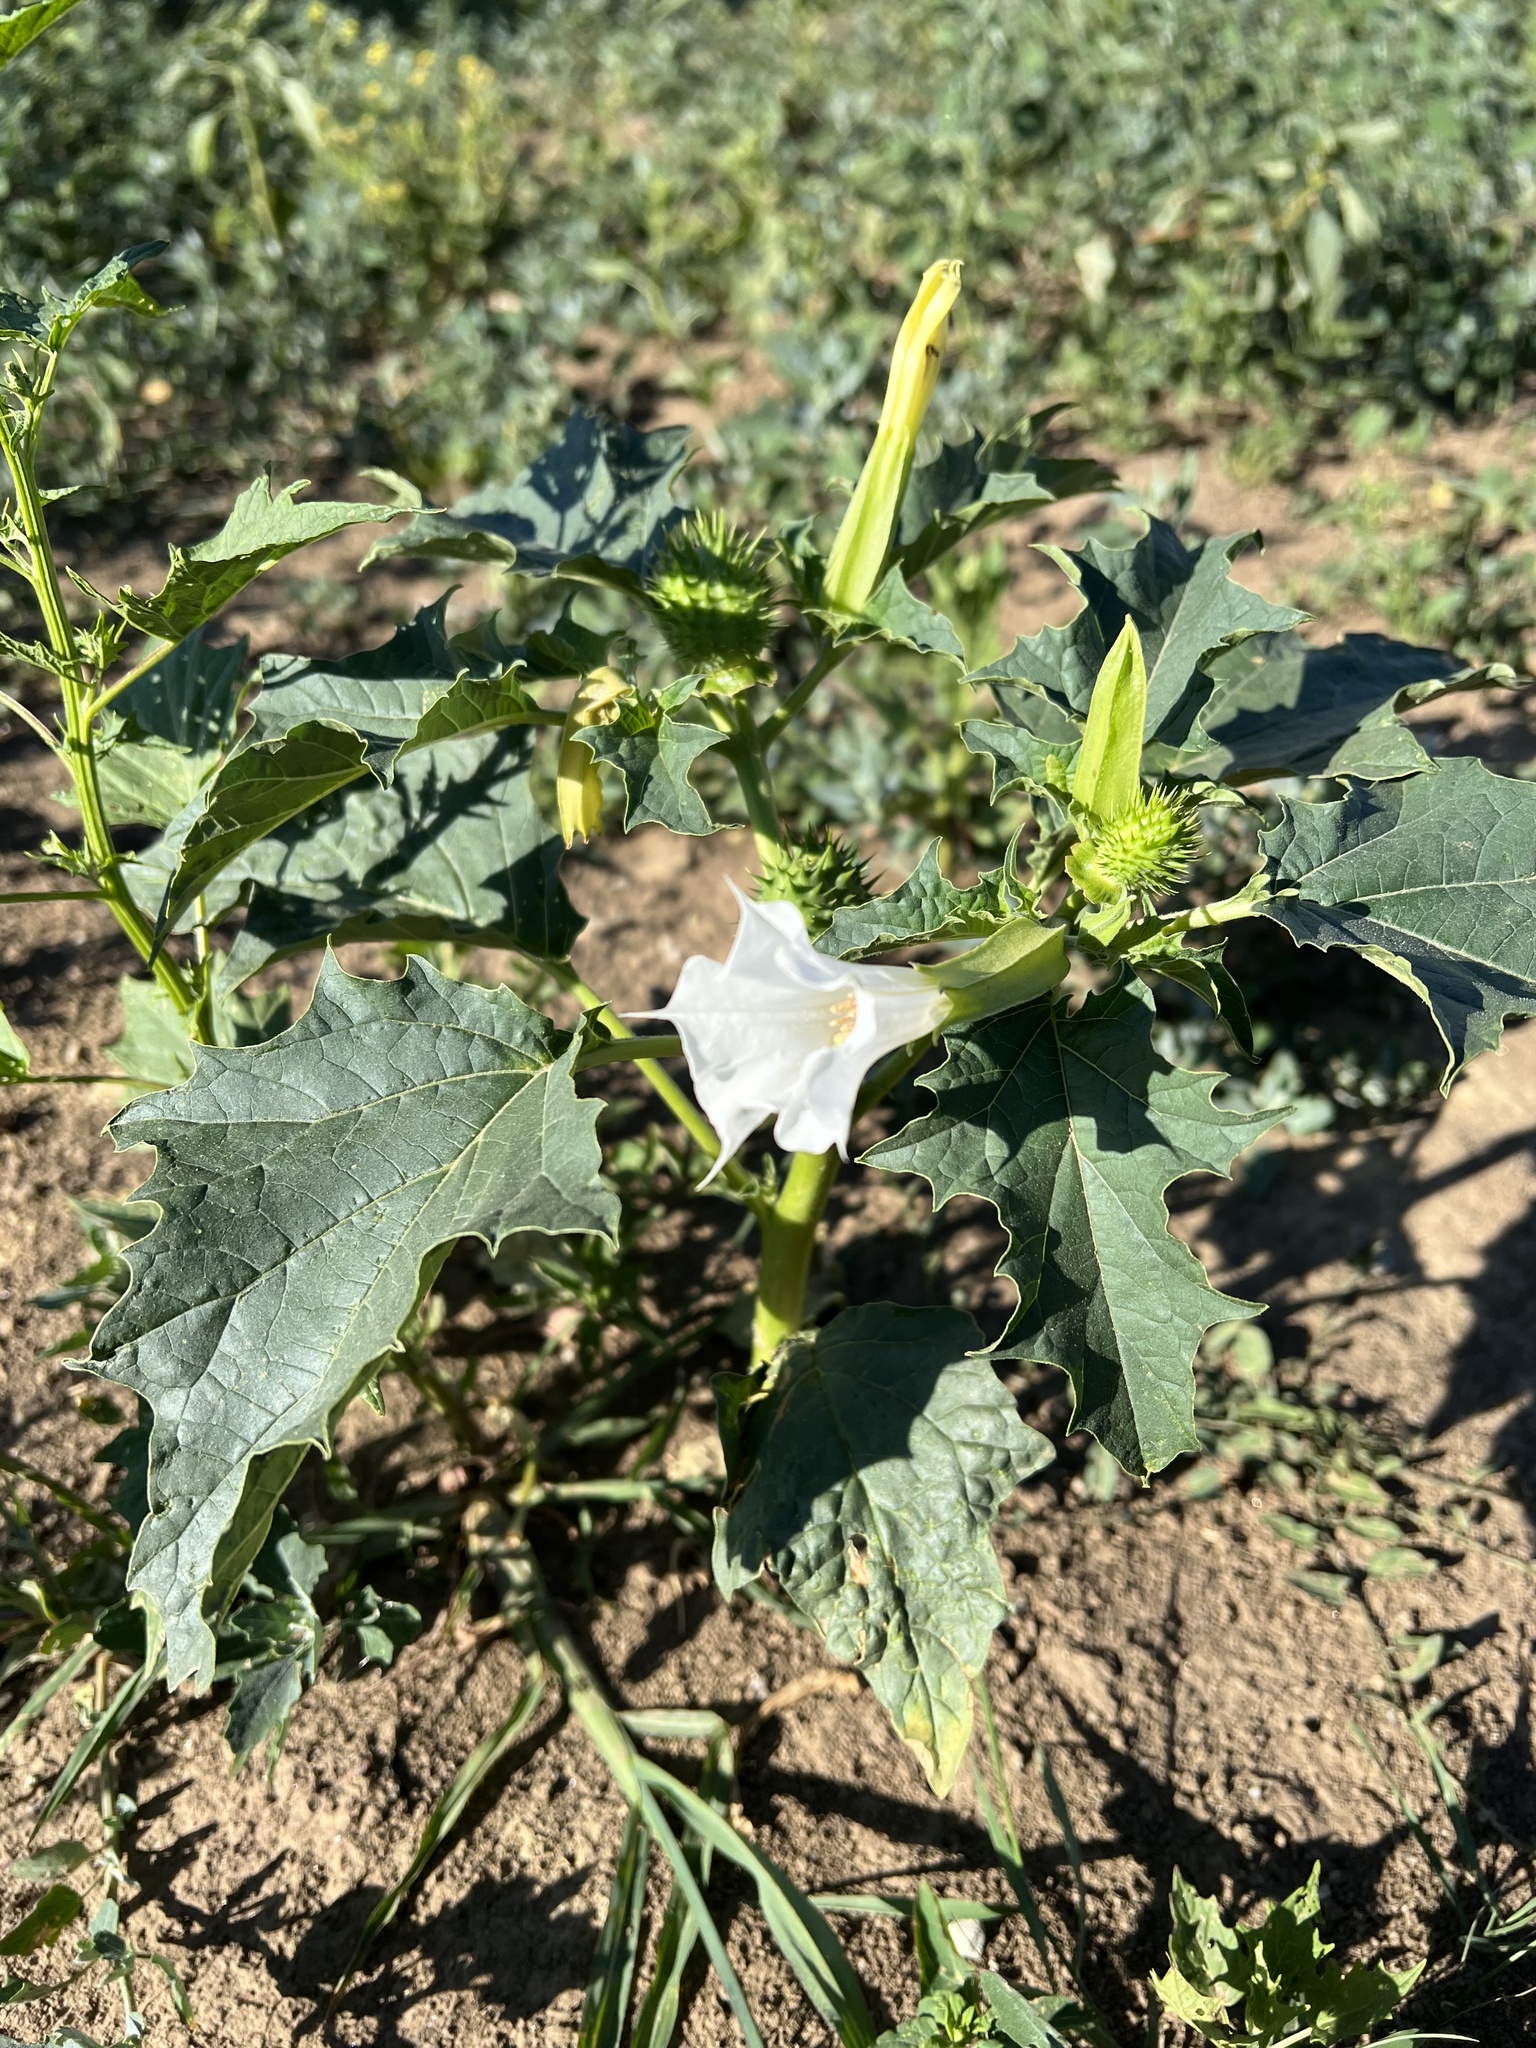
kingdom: Plantae
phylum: Tracheophyta
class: Magnoliopsida
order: Solanales
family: Solanaceae
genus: Datura
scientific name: Datura stramonium
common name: Thorn-apple
